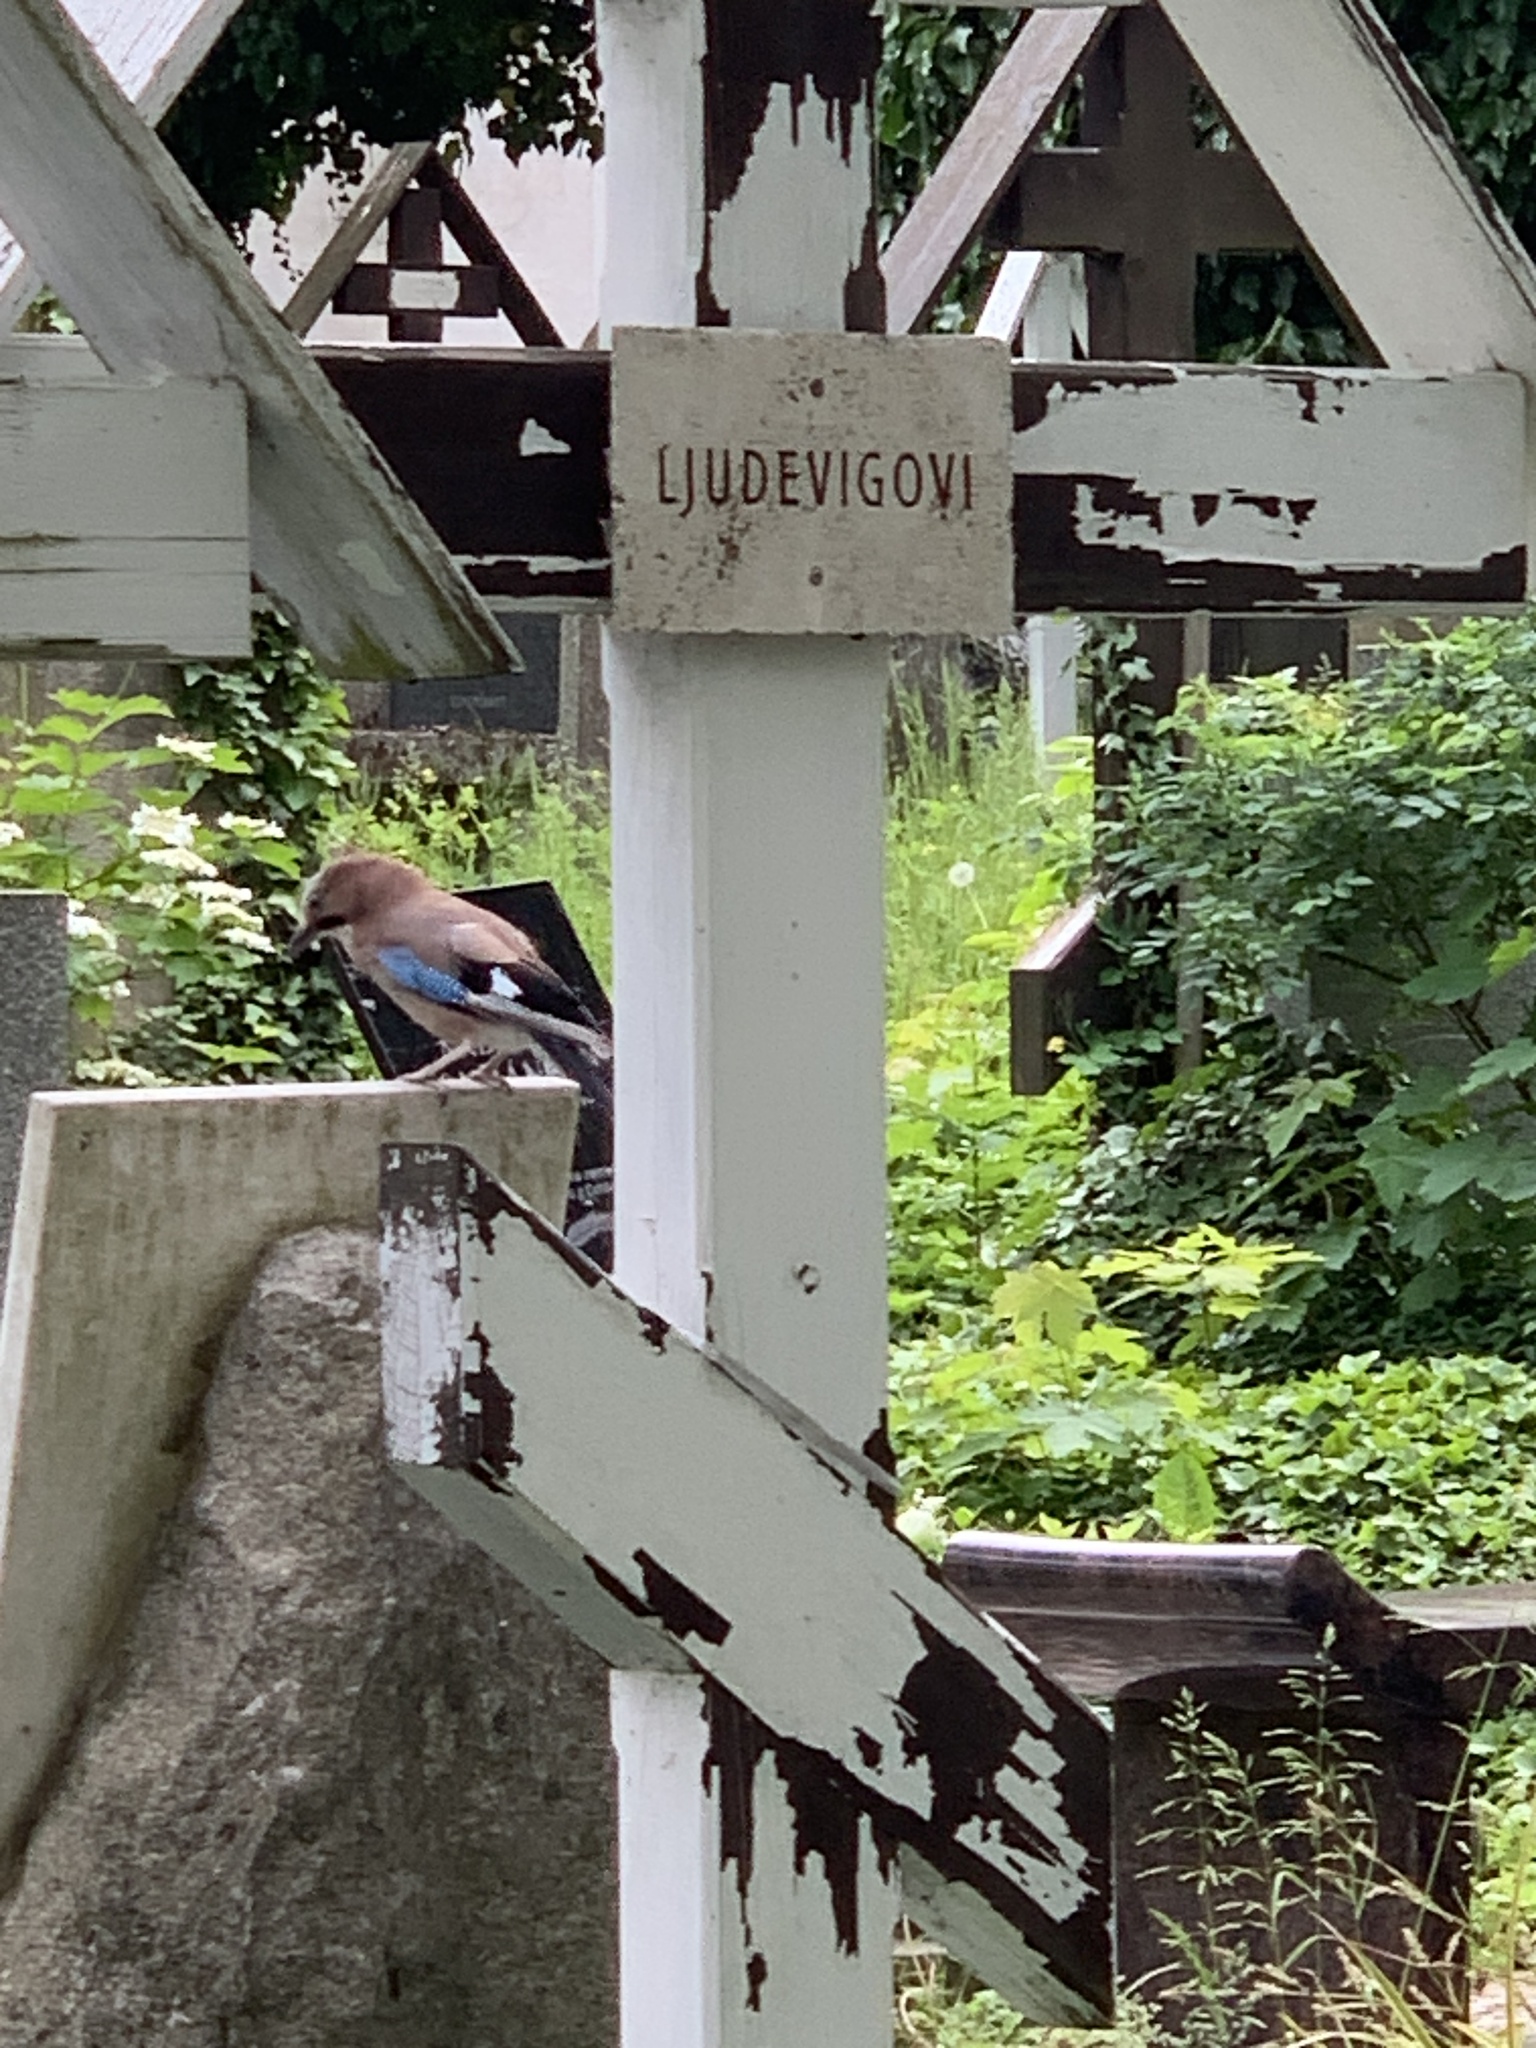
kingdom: Animalia
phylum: Chordata
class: Aves
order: Passeriformes
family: Corvidae
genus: Garrulus
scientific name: Garrulus glandarius
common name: Eurasian jay
